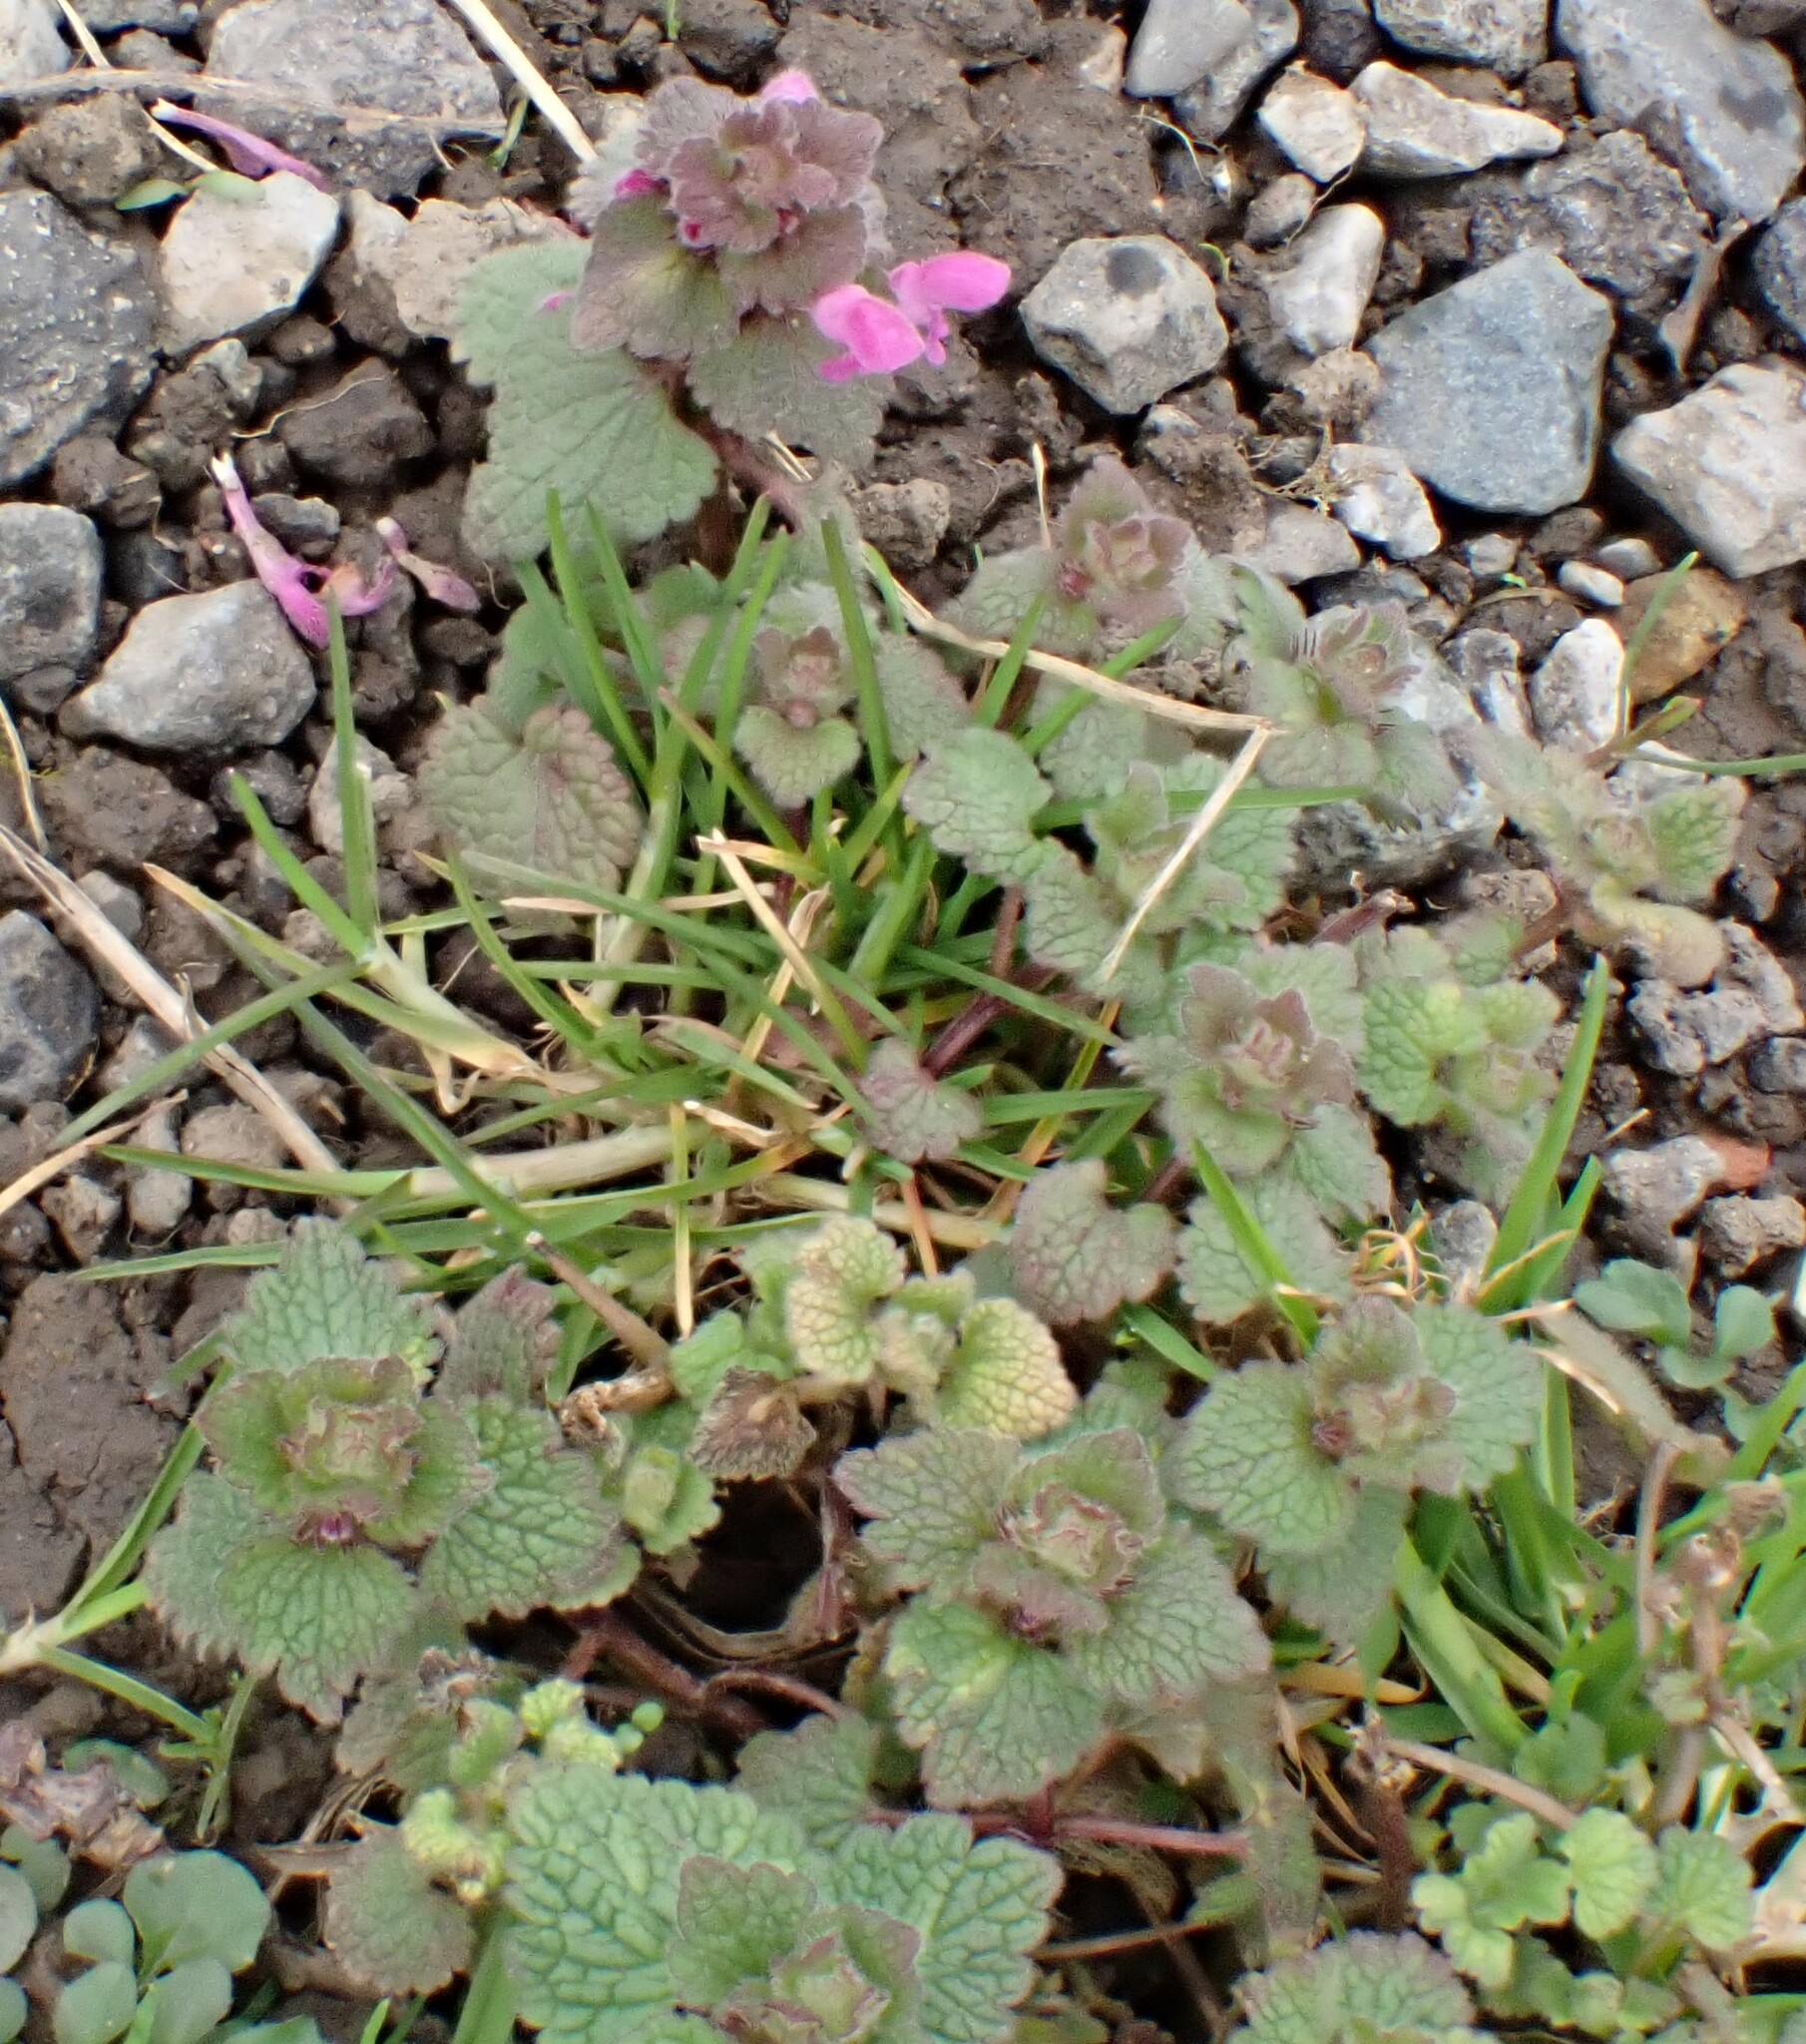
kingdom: Plantae
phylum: Tracheophyta
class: Magnoliopsida
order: Lamiales
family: Lamiaceae
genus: Lamium
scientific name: Lamium purpureum
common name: Red dead-nettle
